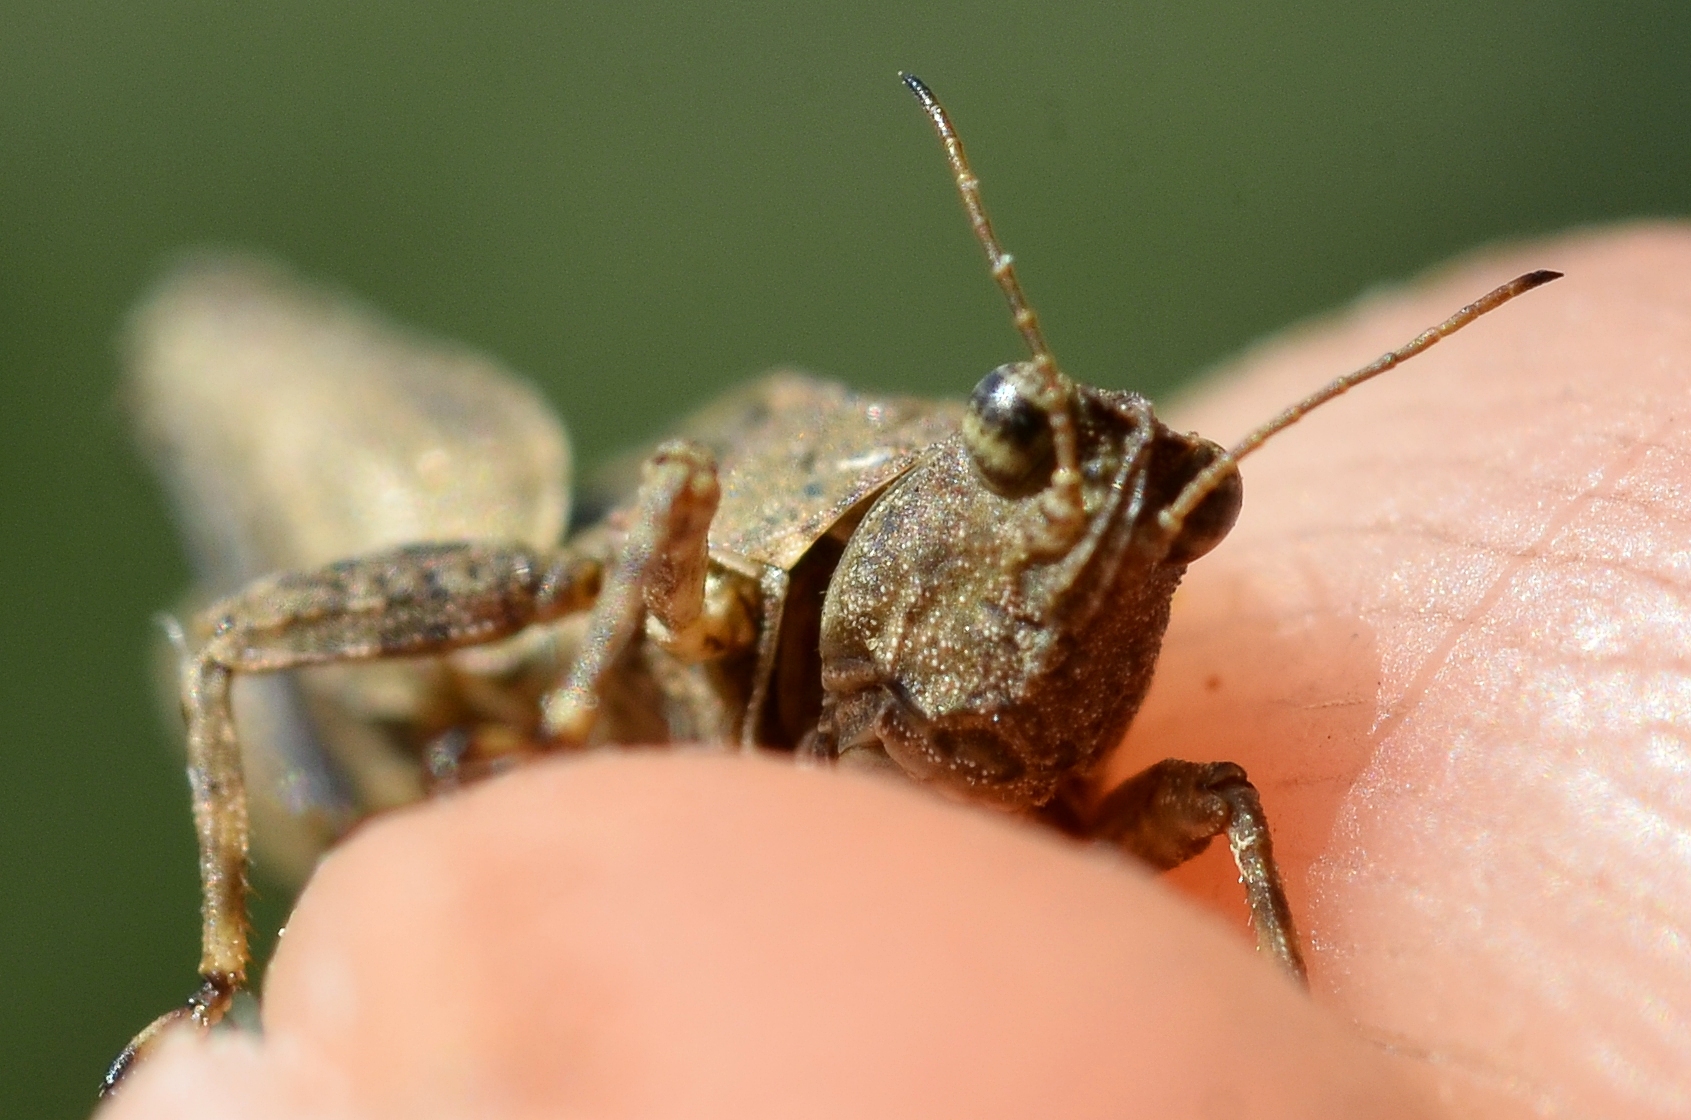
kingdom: Animalia
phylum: Arthropoda
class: Insecta
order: Orthoptera
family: Tetrigidae
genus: Tetrix
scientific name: Tetrix tenuicornis
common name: Long-horned groundhopper
